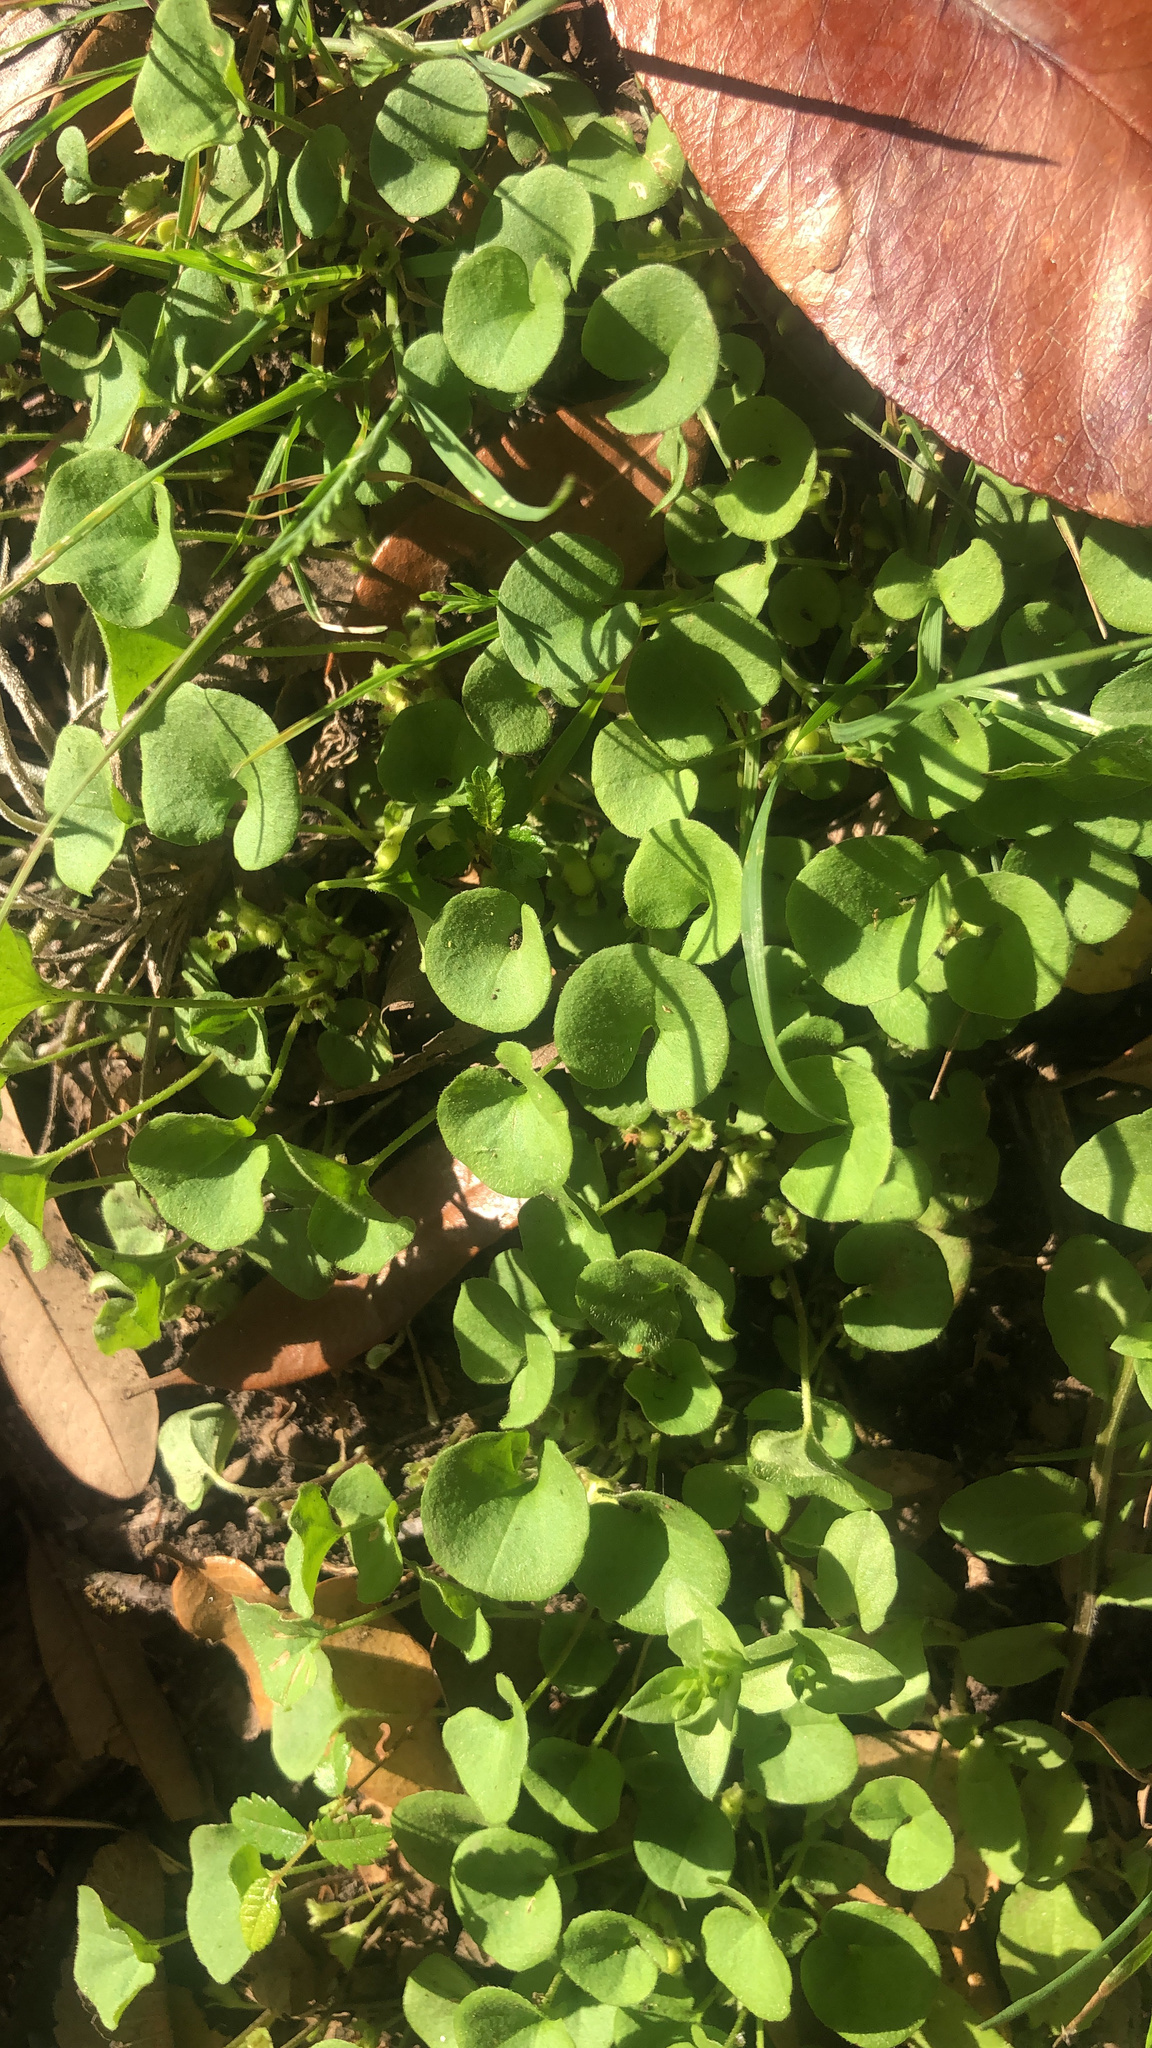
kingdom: Plantae
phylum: Tracheophyta
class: Magnoliopsida
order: Solanales
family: Convolvulaceae
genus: Dichondra
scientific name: Dichondra carolinensis
